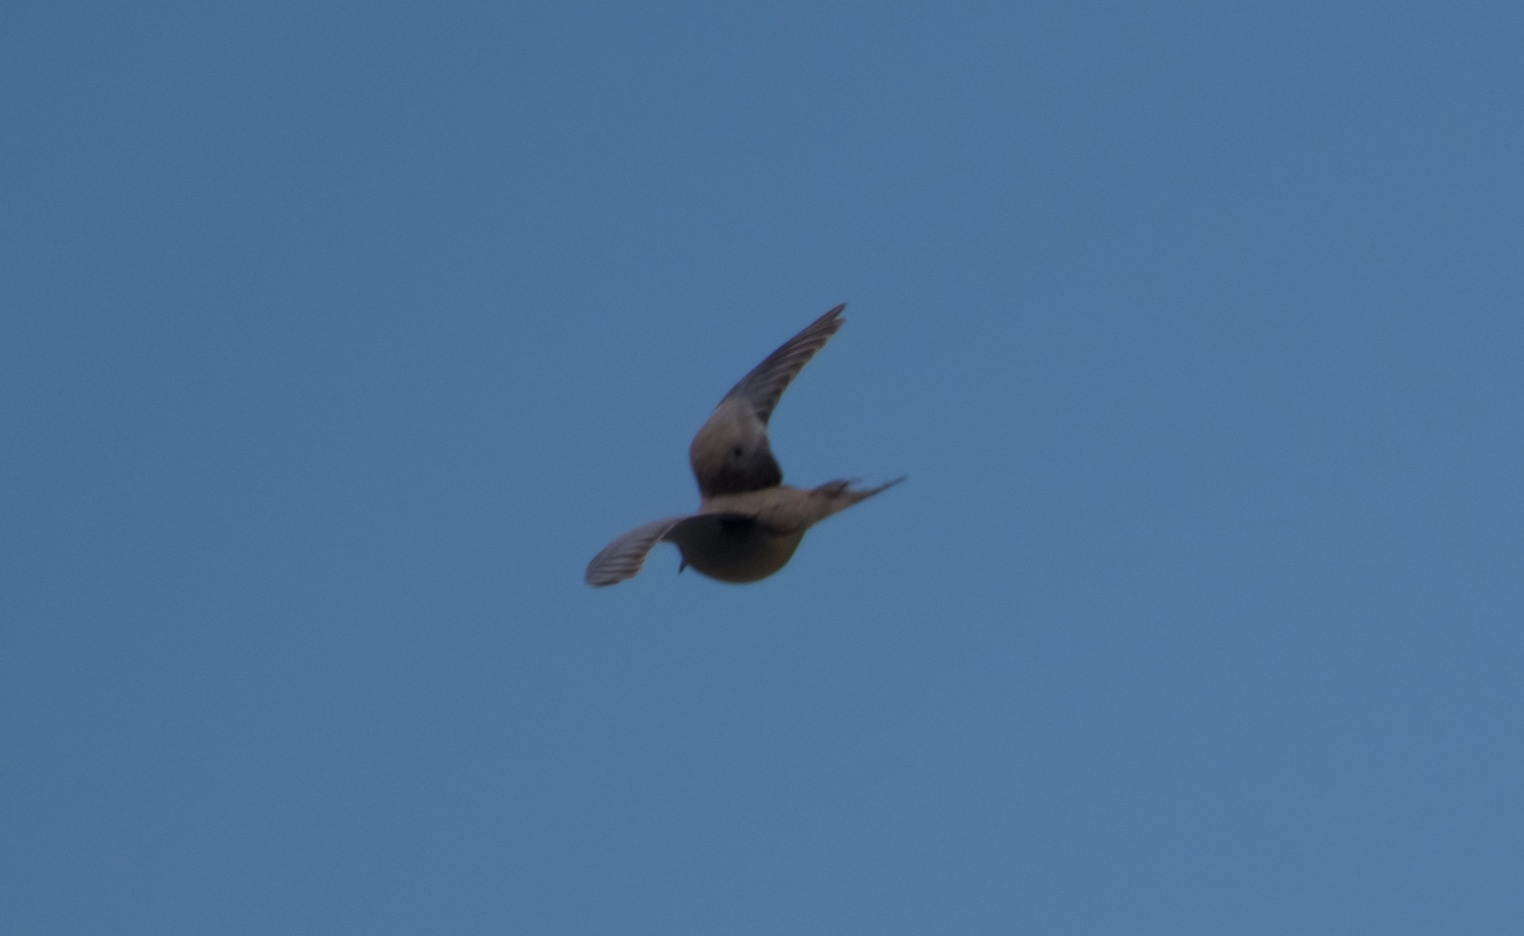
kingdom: Animalia
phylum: Chordata
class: Aves
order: Columbiformes
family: Columbidae
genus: Zenaida
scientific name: Zenaida macroura
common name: Mourning dove
